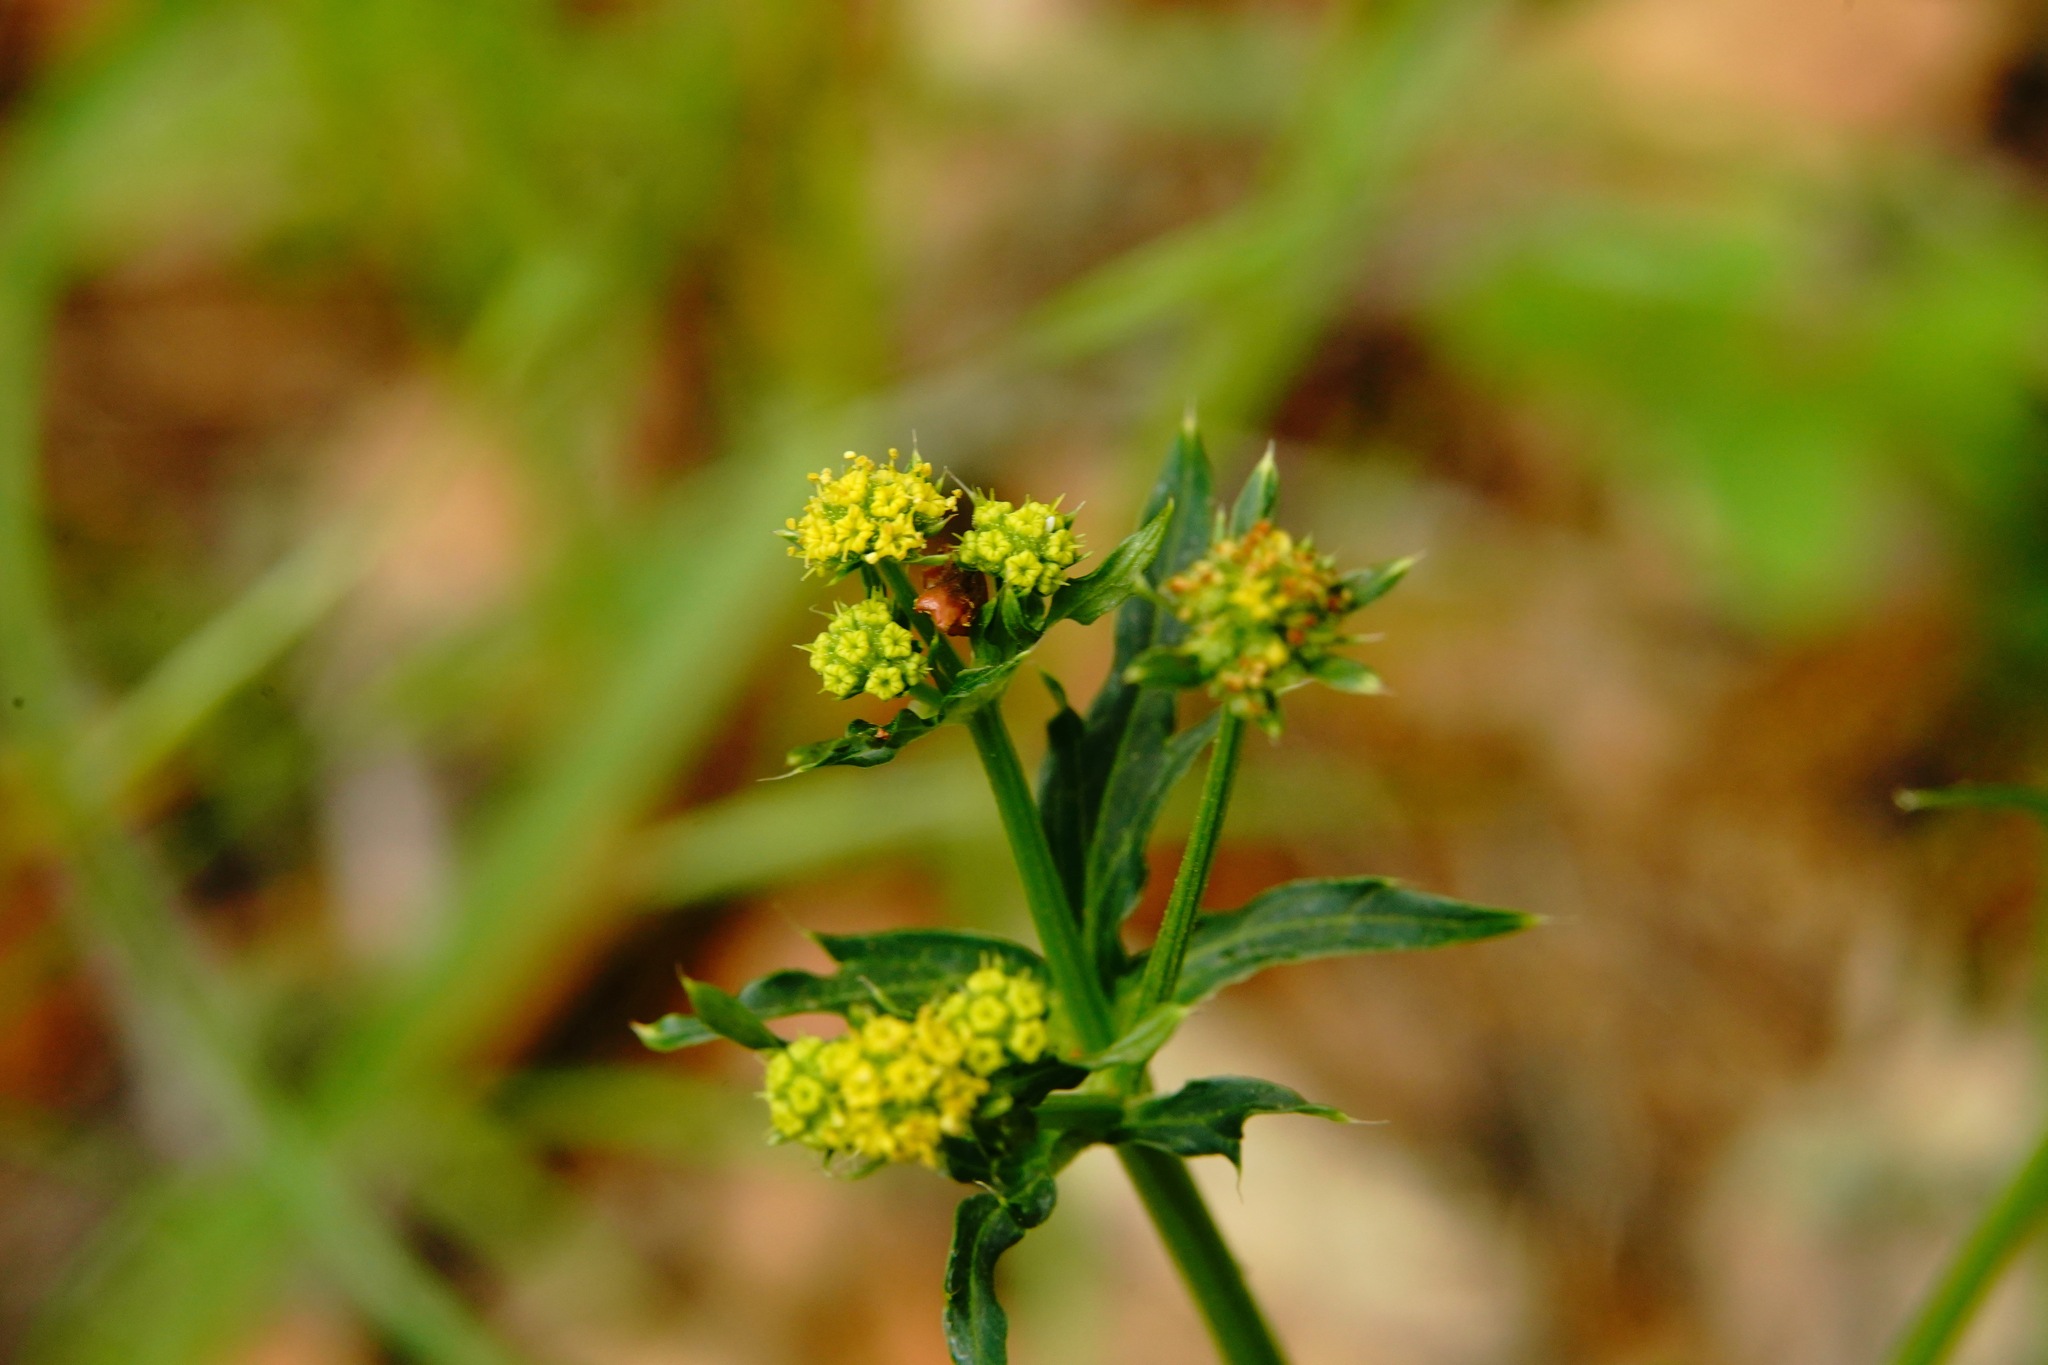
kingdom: Plantae
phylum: Tracheophyta
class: Magnoliopsida
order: Apiales
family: Apiaceae
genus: Sanicula
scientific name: Sanicula crassicaulis
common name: Western snakeroot
